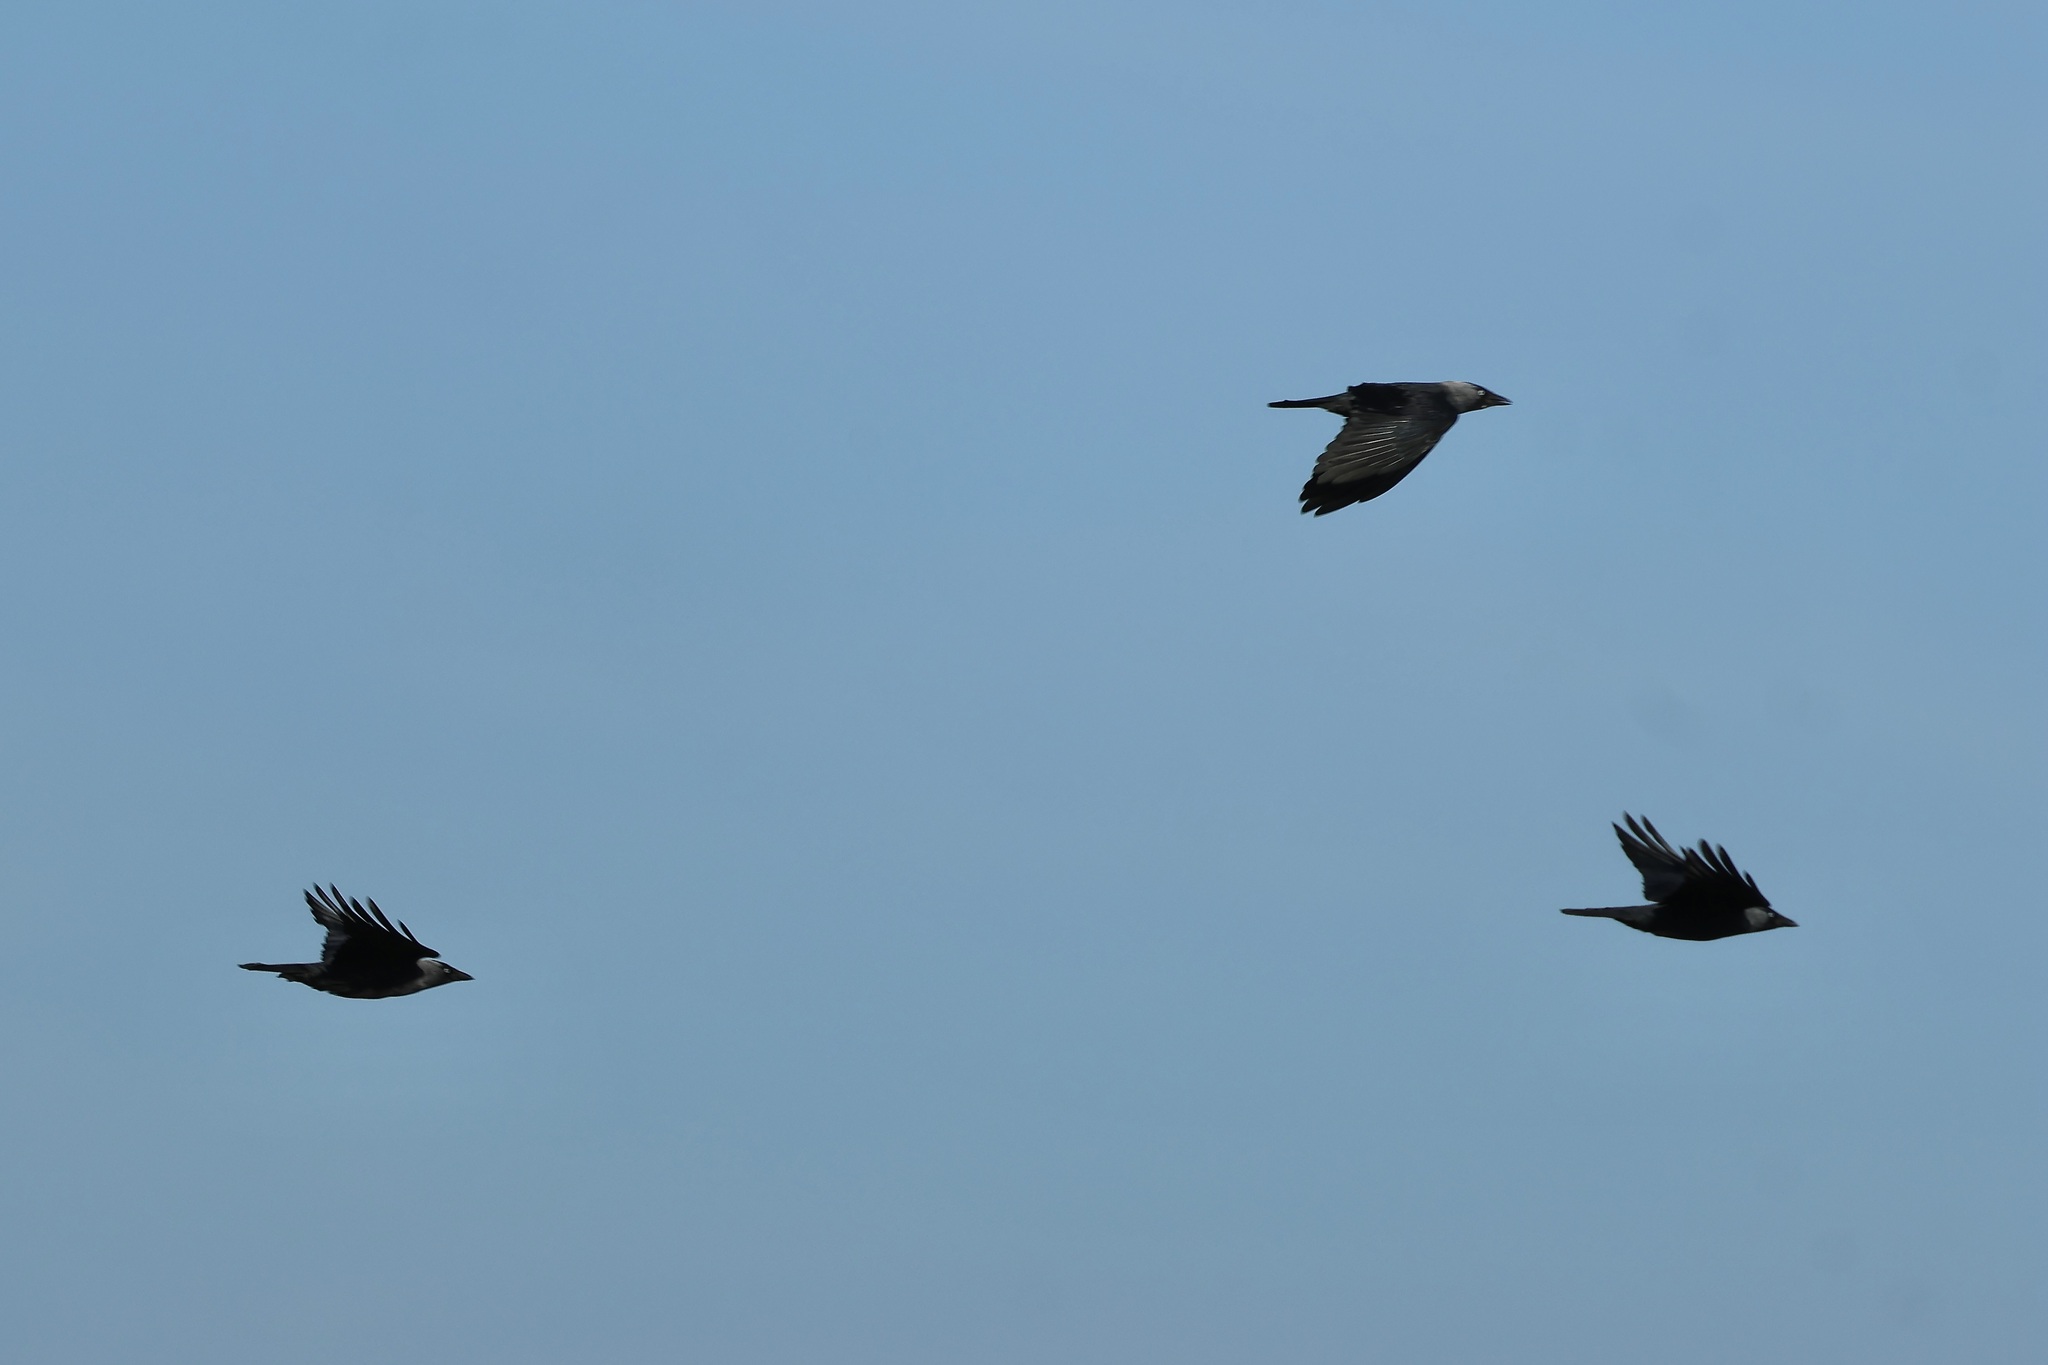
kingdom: Animalia
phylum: Chordata
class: Aves
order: Passeriformes
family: Corvidae
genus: Coloeus
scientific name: Coloeus monedula
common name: Western jackdaw
